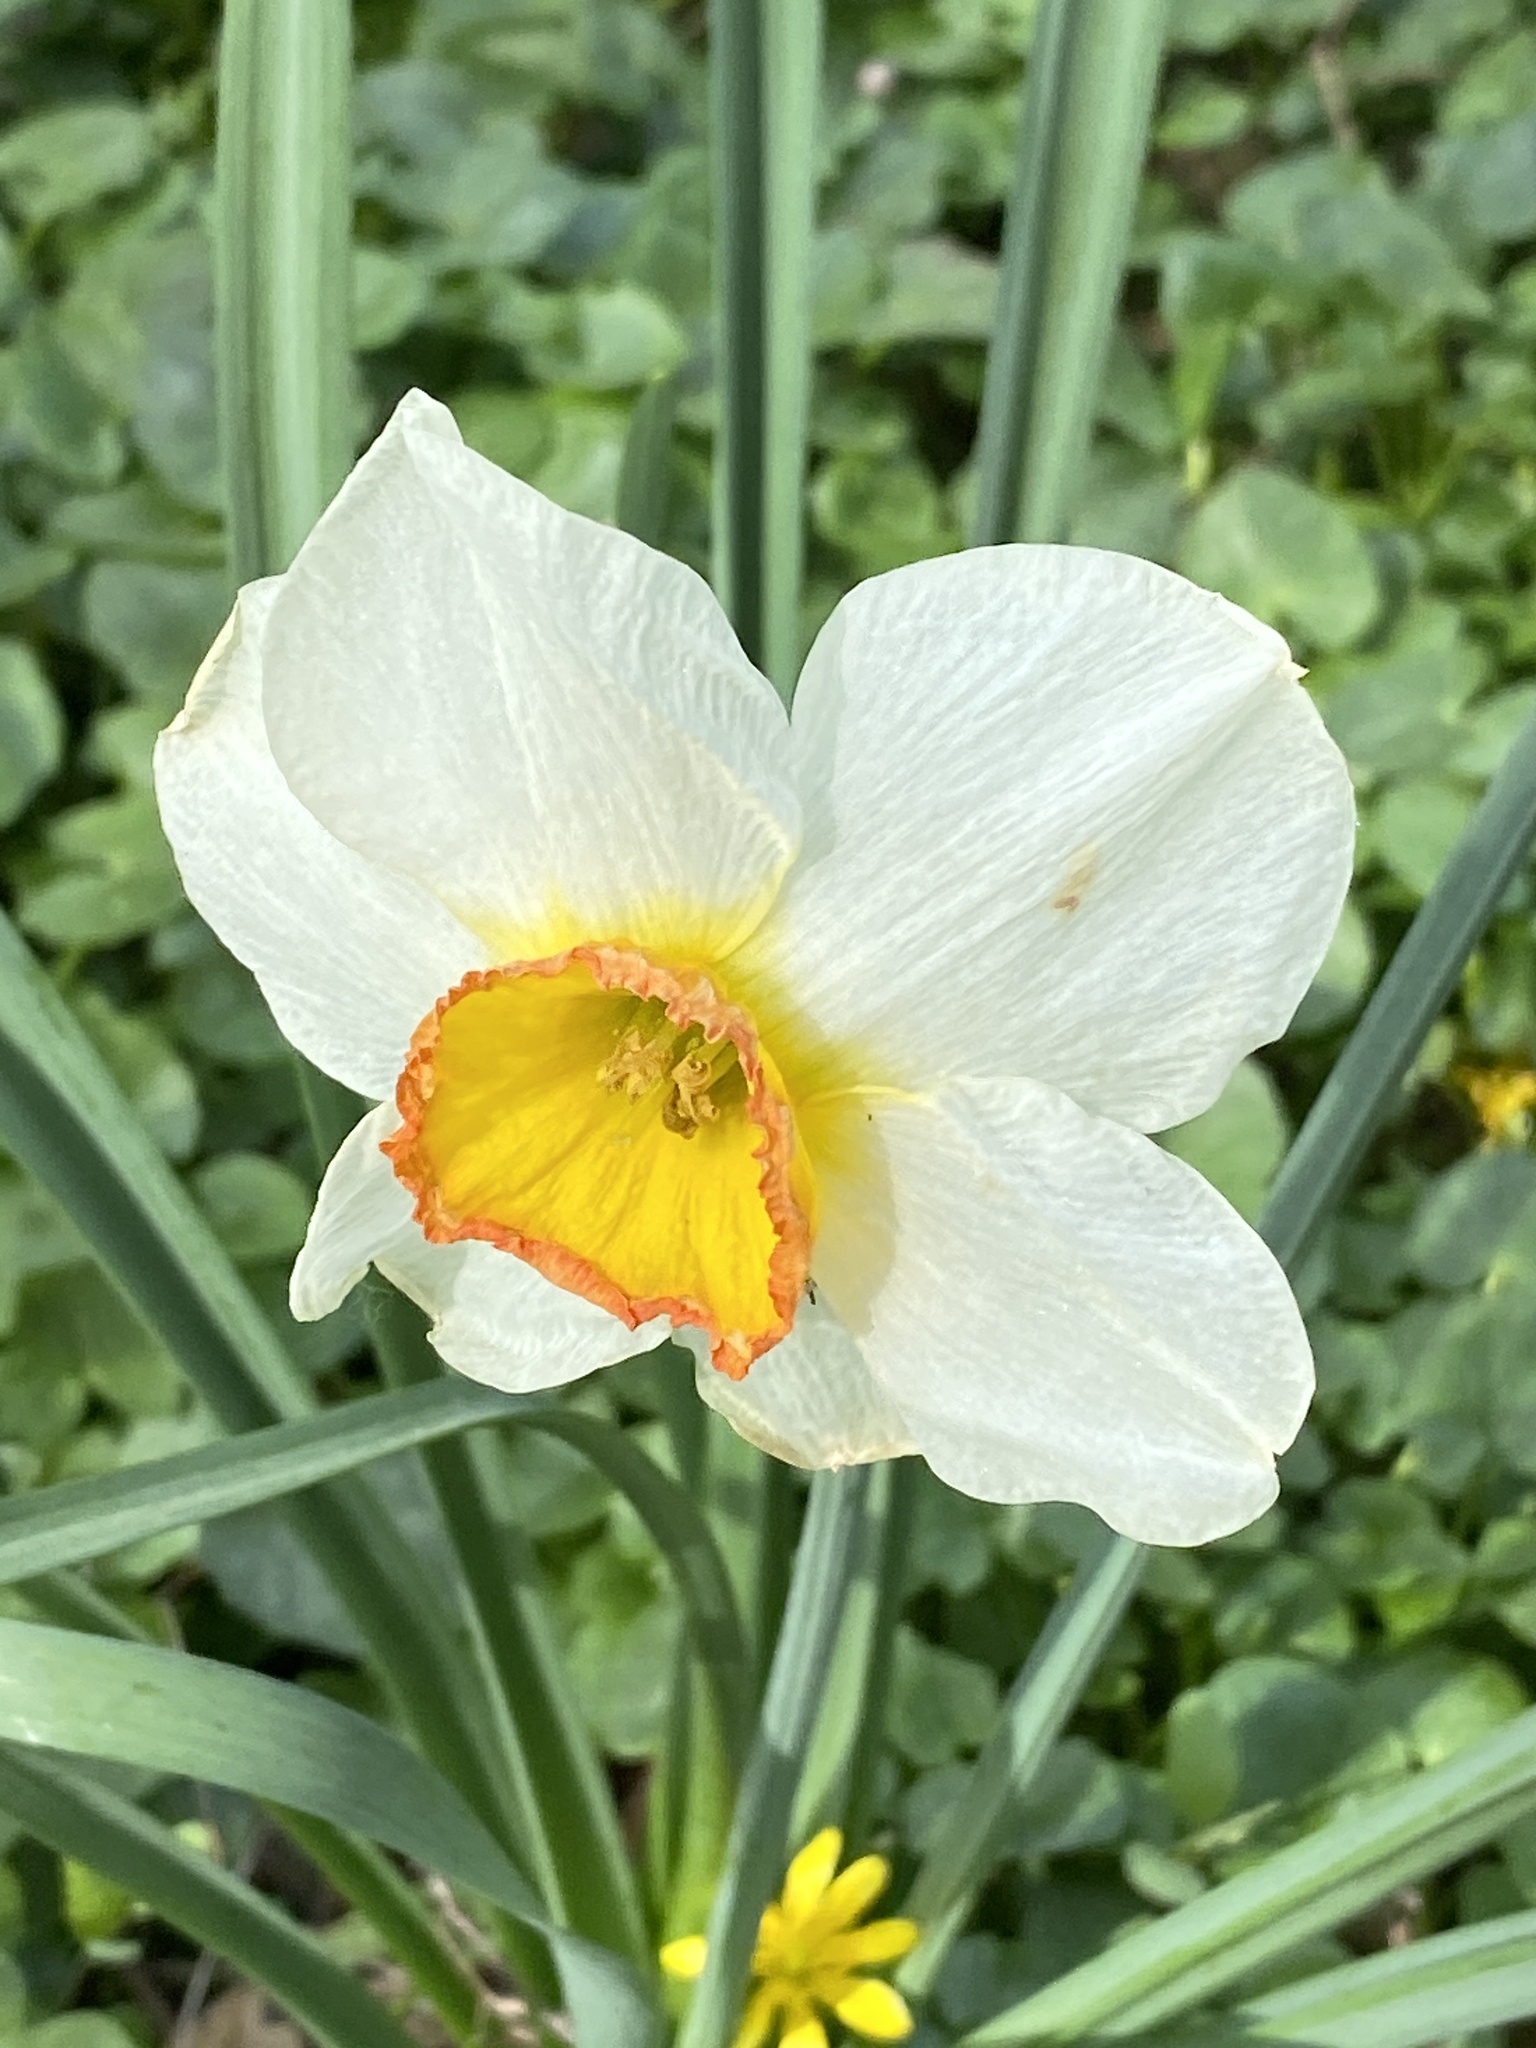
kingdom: Plantae
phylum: Tracheophyta
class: Liliopsida
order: Asparagales
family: Amaryllidaceae
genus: Narcissus
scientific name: Narcissus poeticus
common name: Pheasant's-eye daffodil
